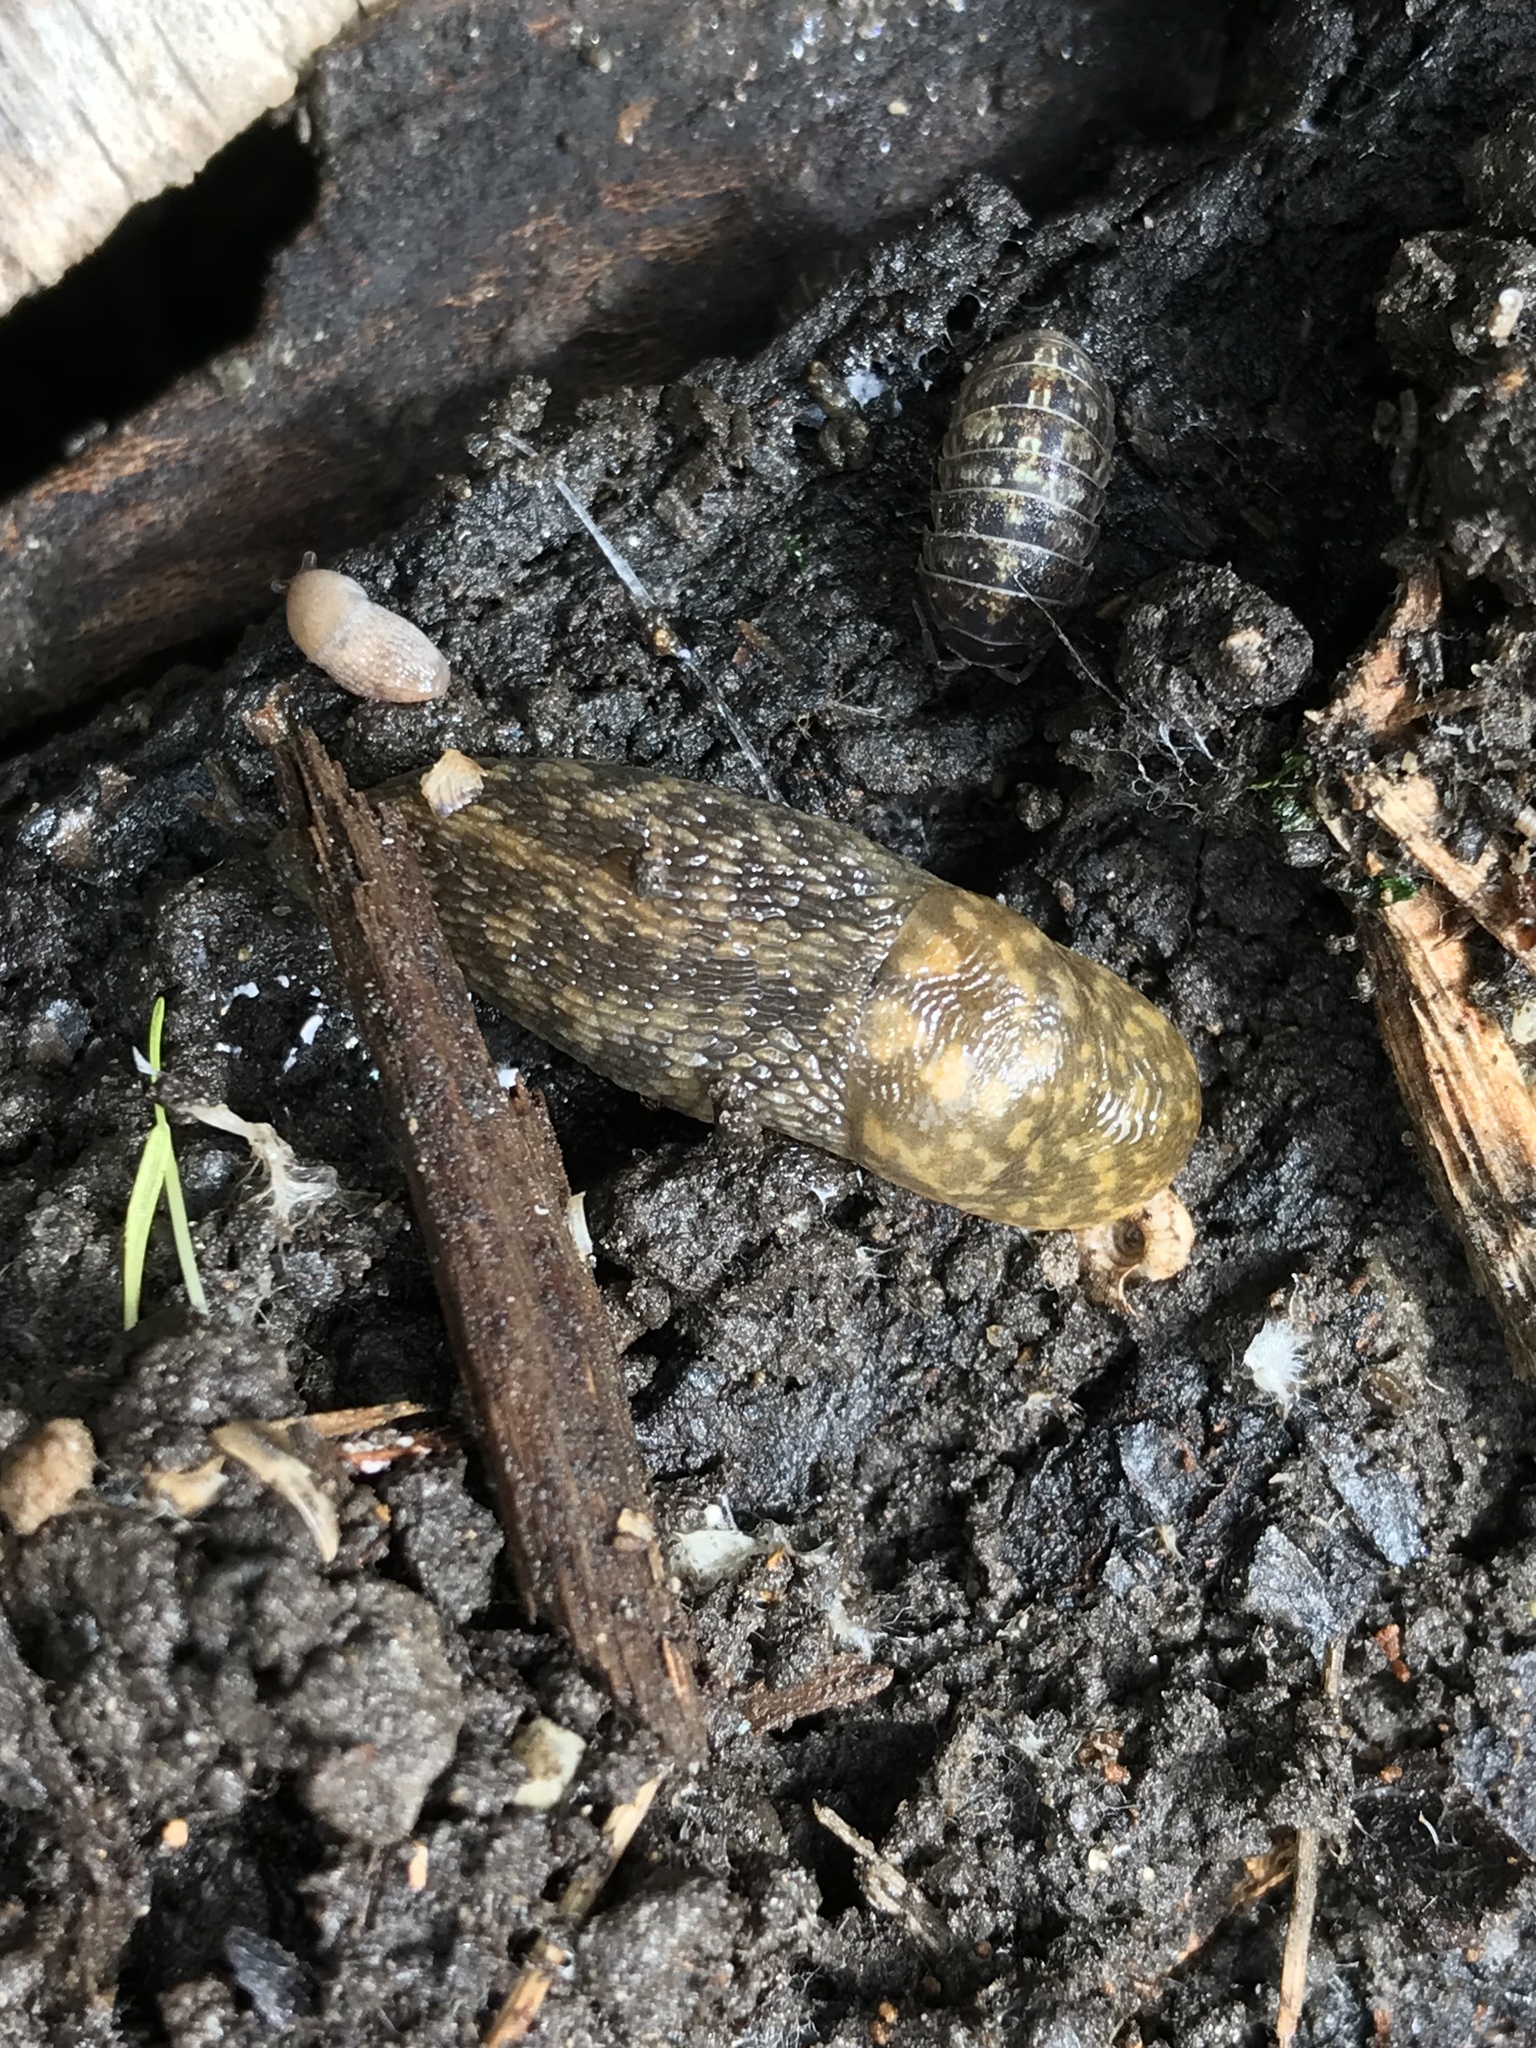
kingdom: Animalia
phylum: Mollusca
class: Gastropoda
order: Stylommatophora
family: Limacidae
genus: Limacus
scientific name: Limacus flavus
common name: Yellow gardenslug
